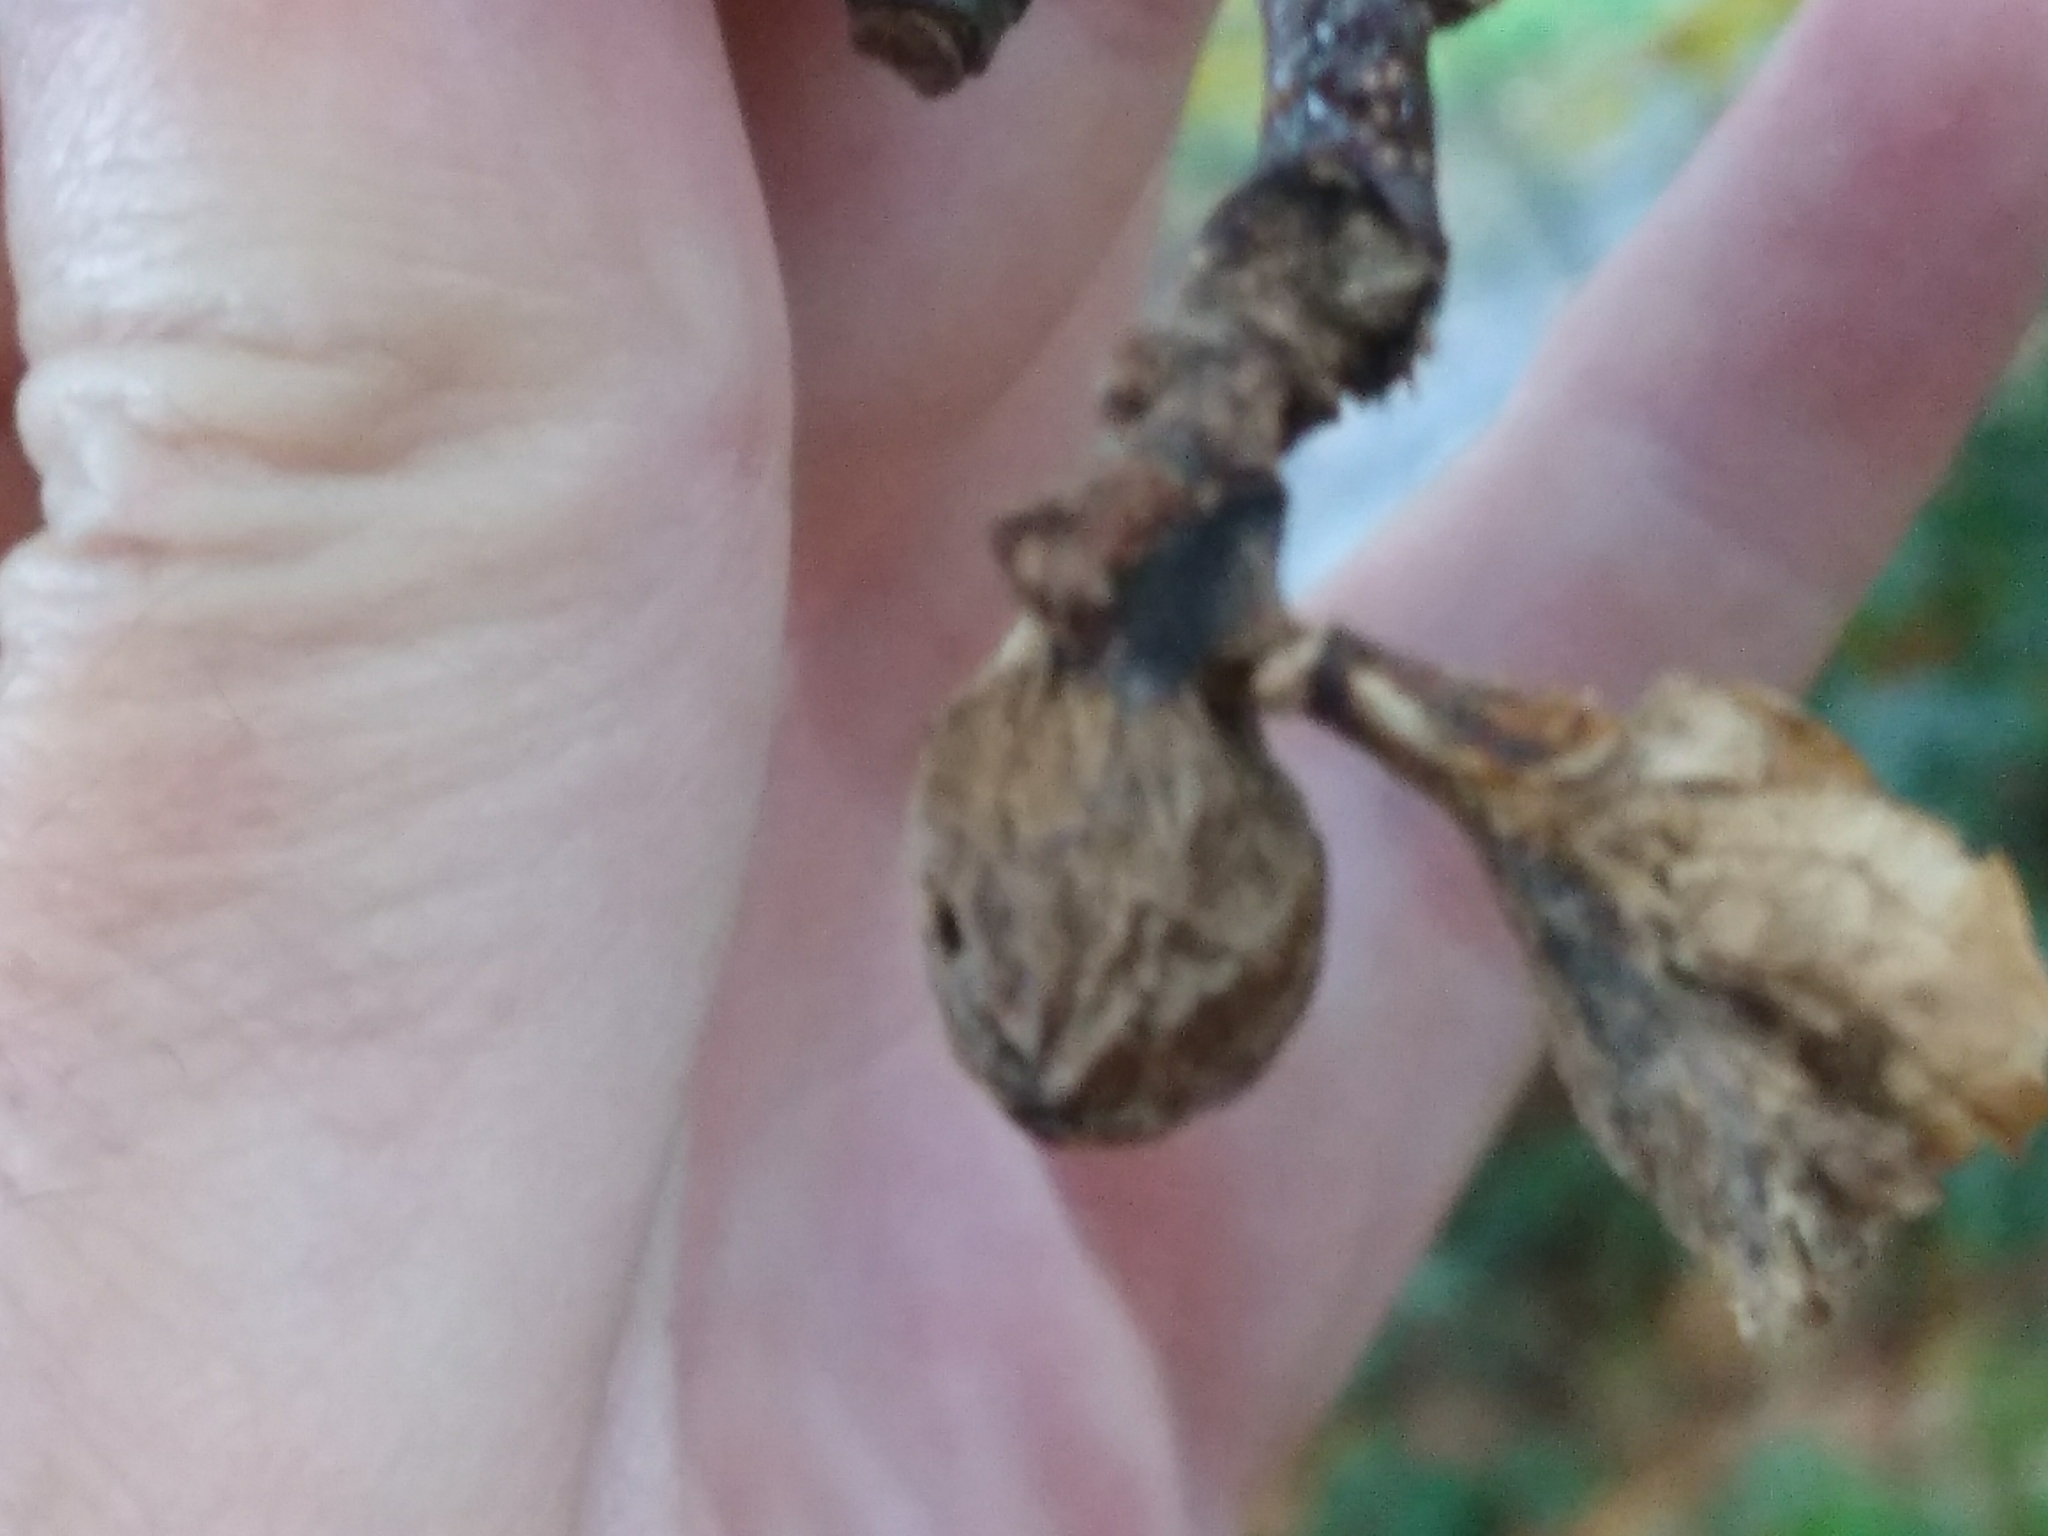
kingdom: Animalia
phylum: Arthropoda
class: Insecta
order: Hymenoptera
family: Cynipidae
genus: Dryocosmus
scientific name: Dryocosmus kuriphilus
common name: Asian chestnut gall wasp
